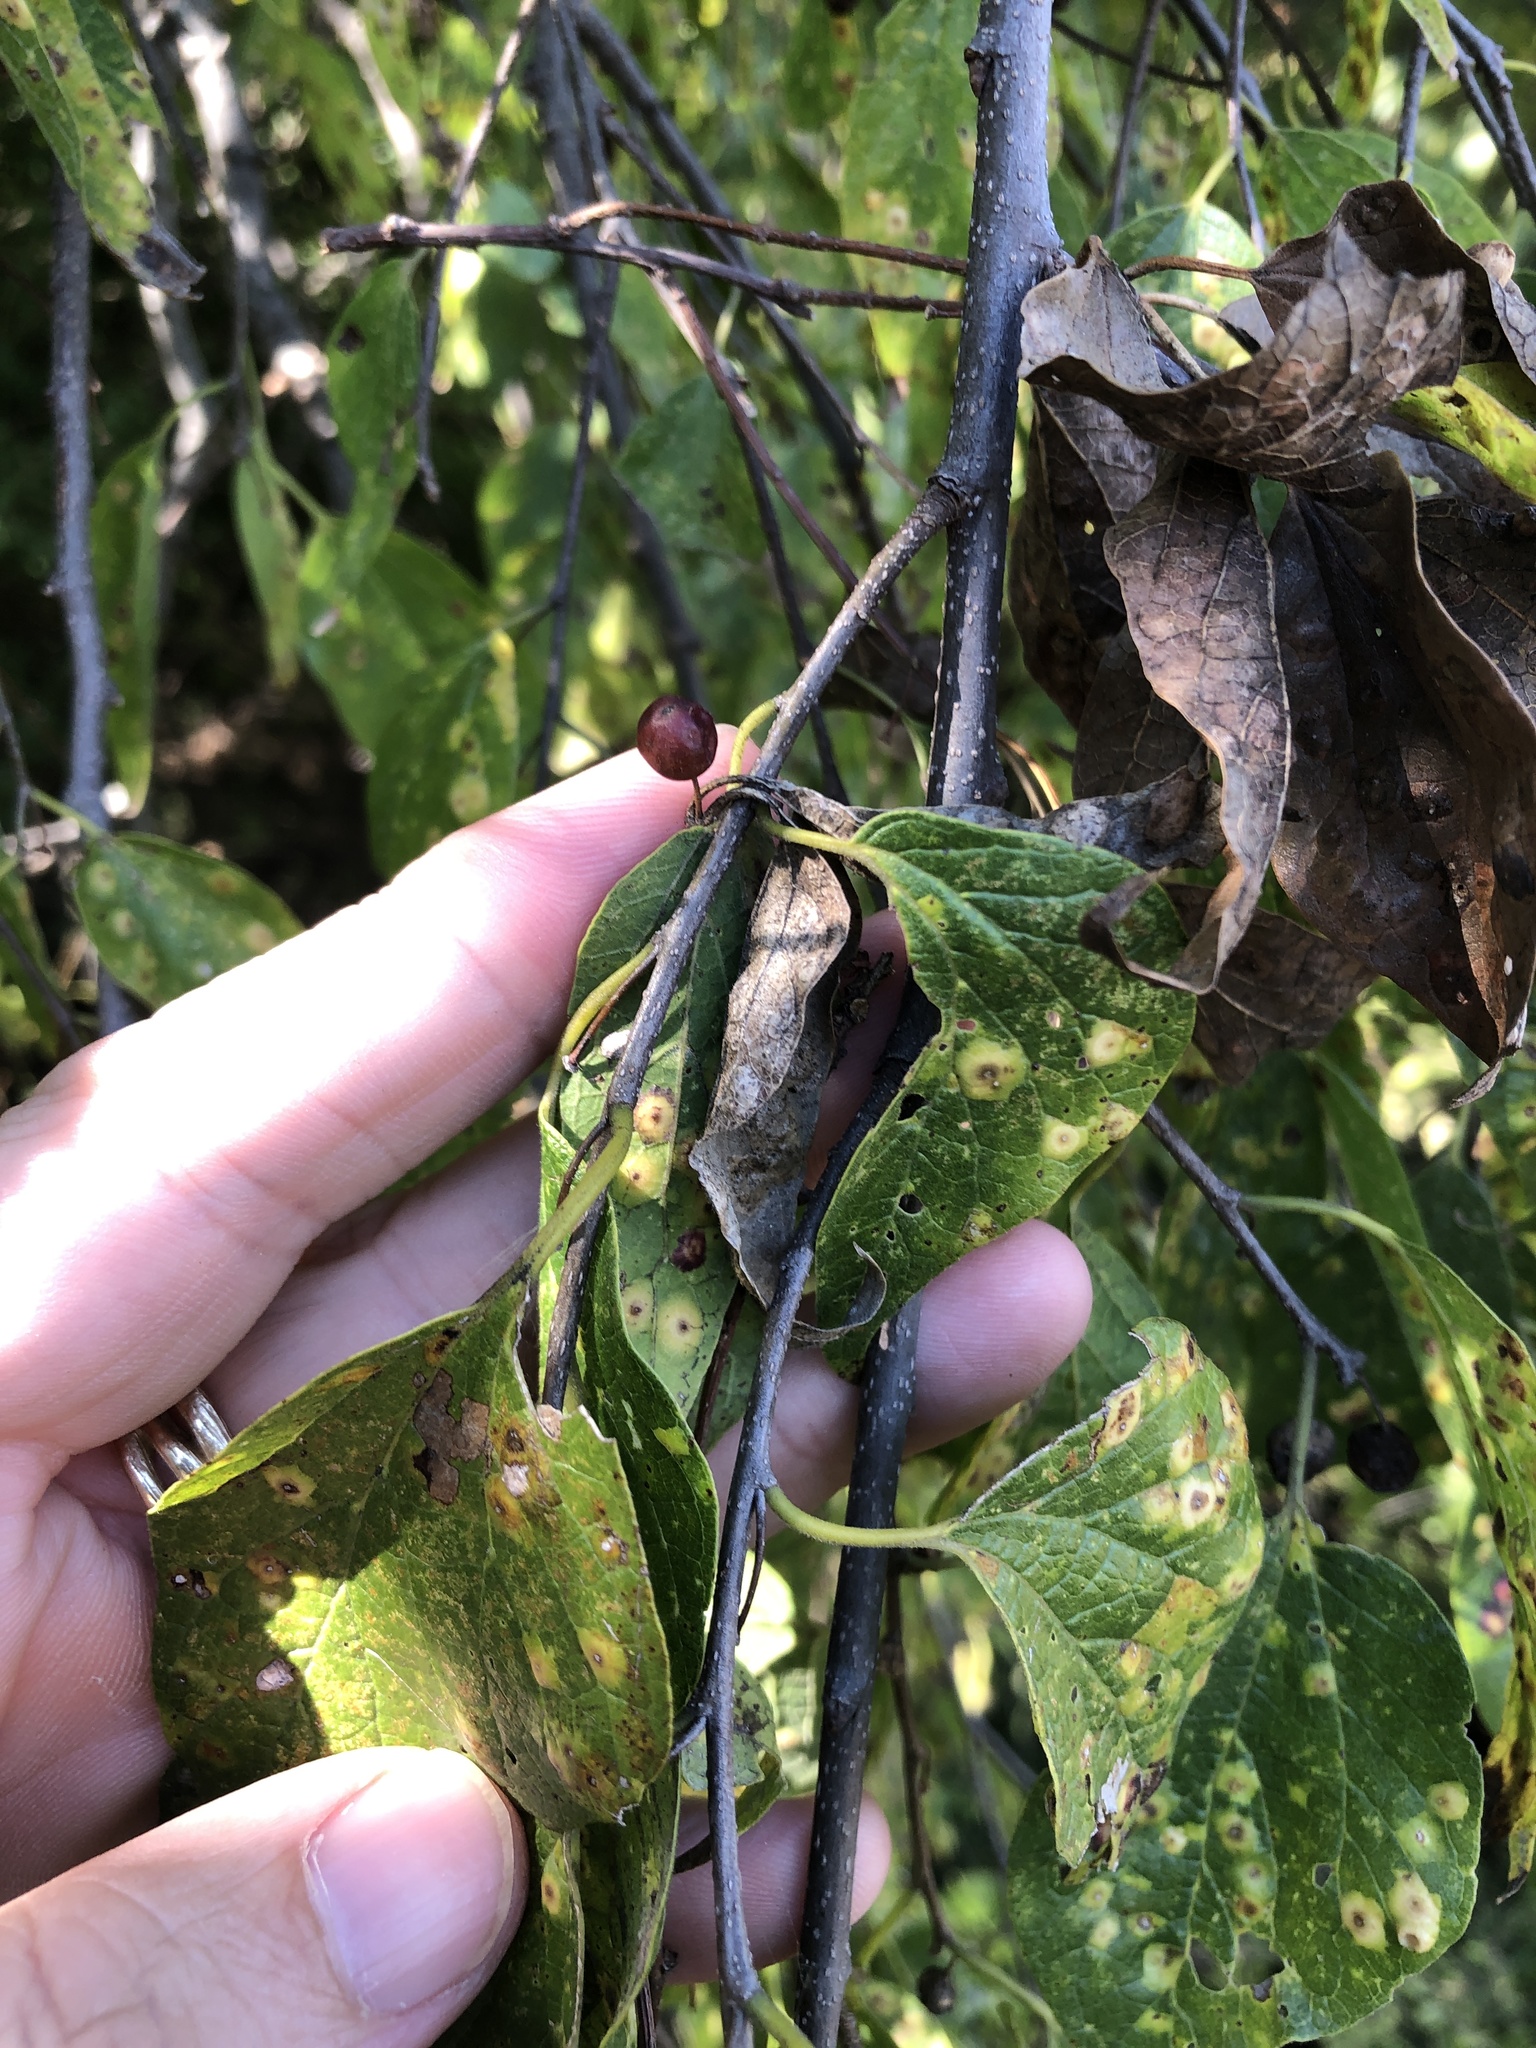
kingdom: Plantae
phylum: Tracheophyta
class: Magnoliopsida
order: Rosales
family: Cannabaceae
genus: Celtis
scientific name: Celtis laevigata
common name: Sugarberry
